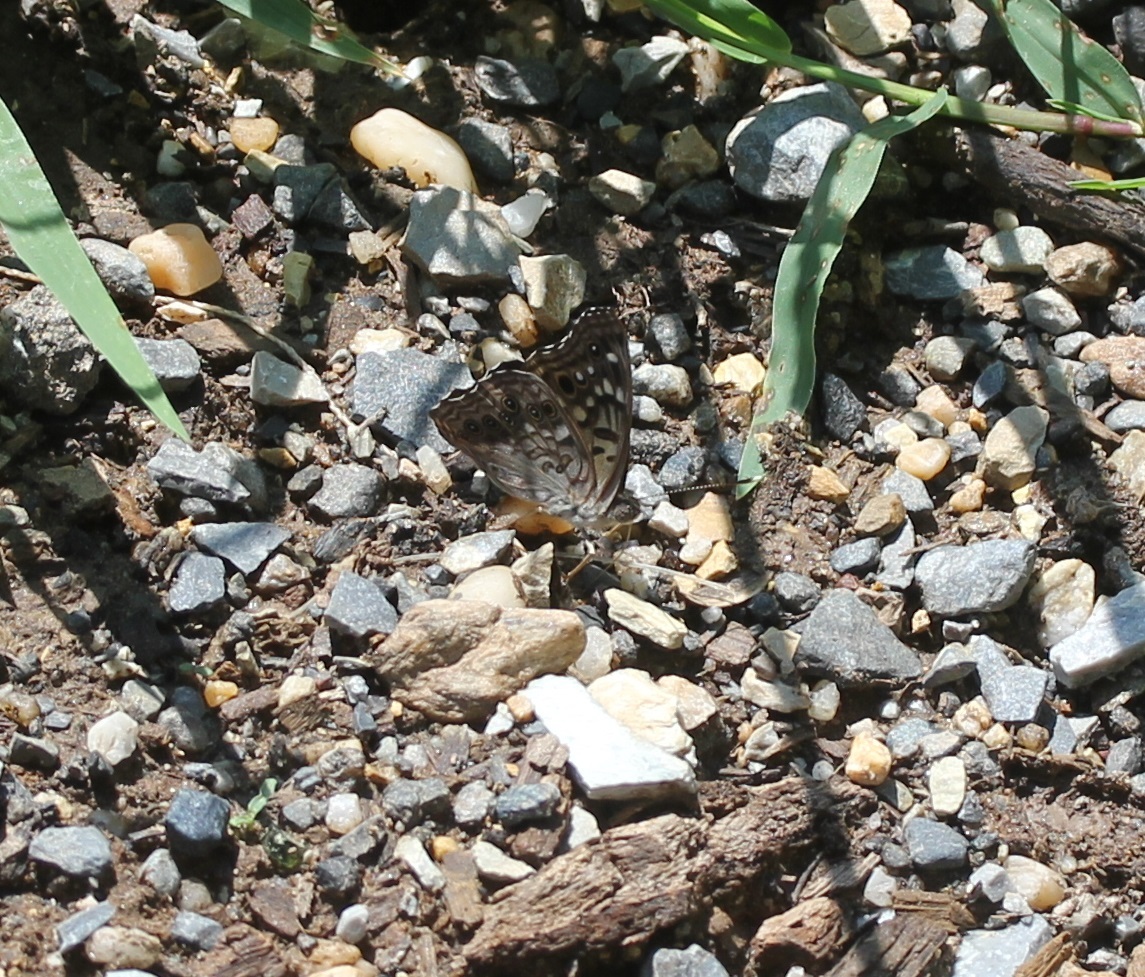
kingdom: Animalia
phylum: Arthropoda
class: Insecta
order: Lepidoptera
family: Nymphalidae
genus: Asterocampa
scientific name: Asterocampa celtis
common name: Hackberry emperor
